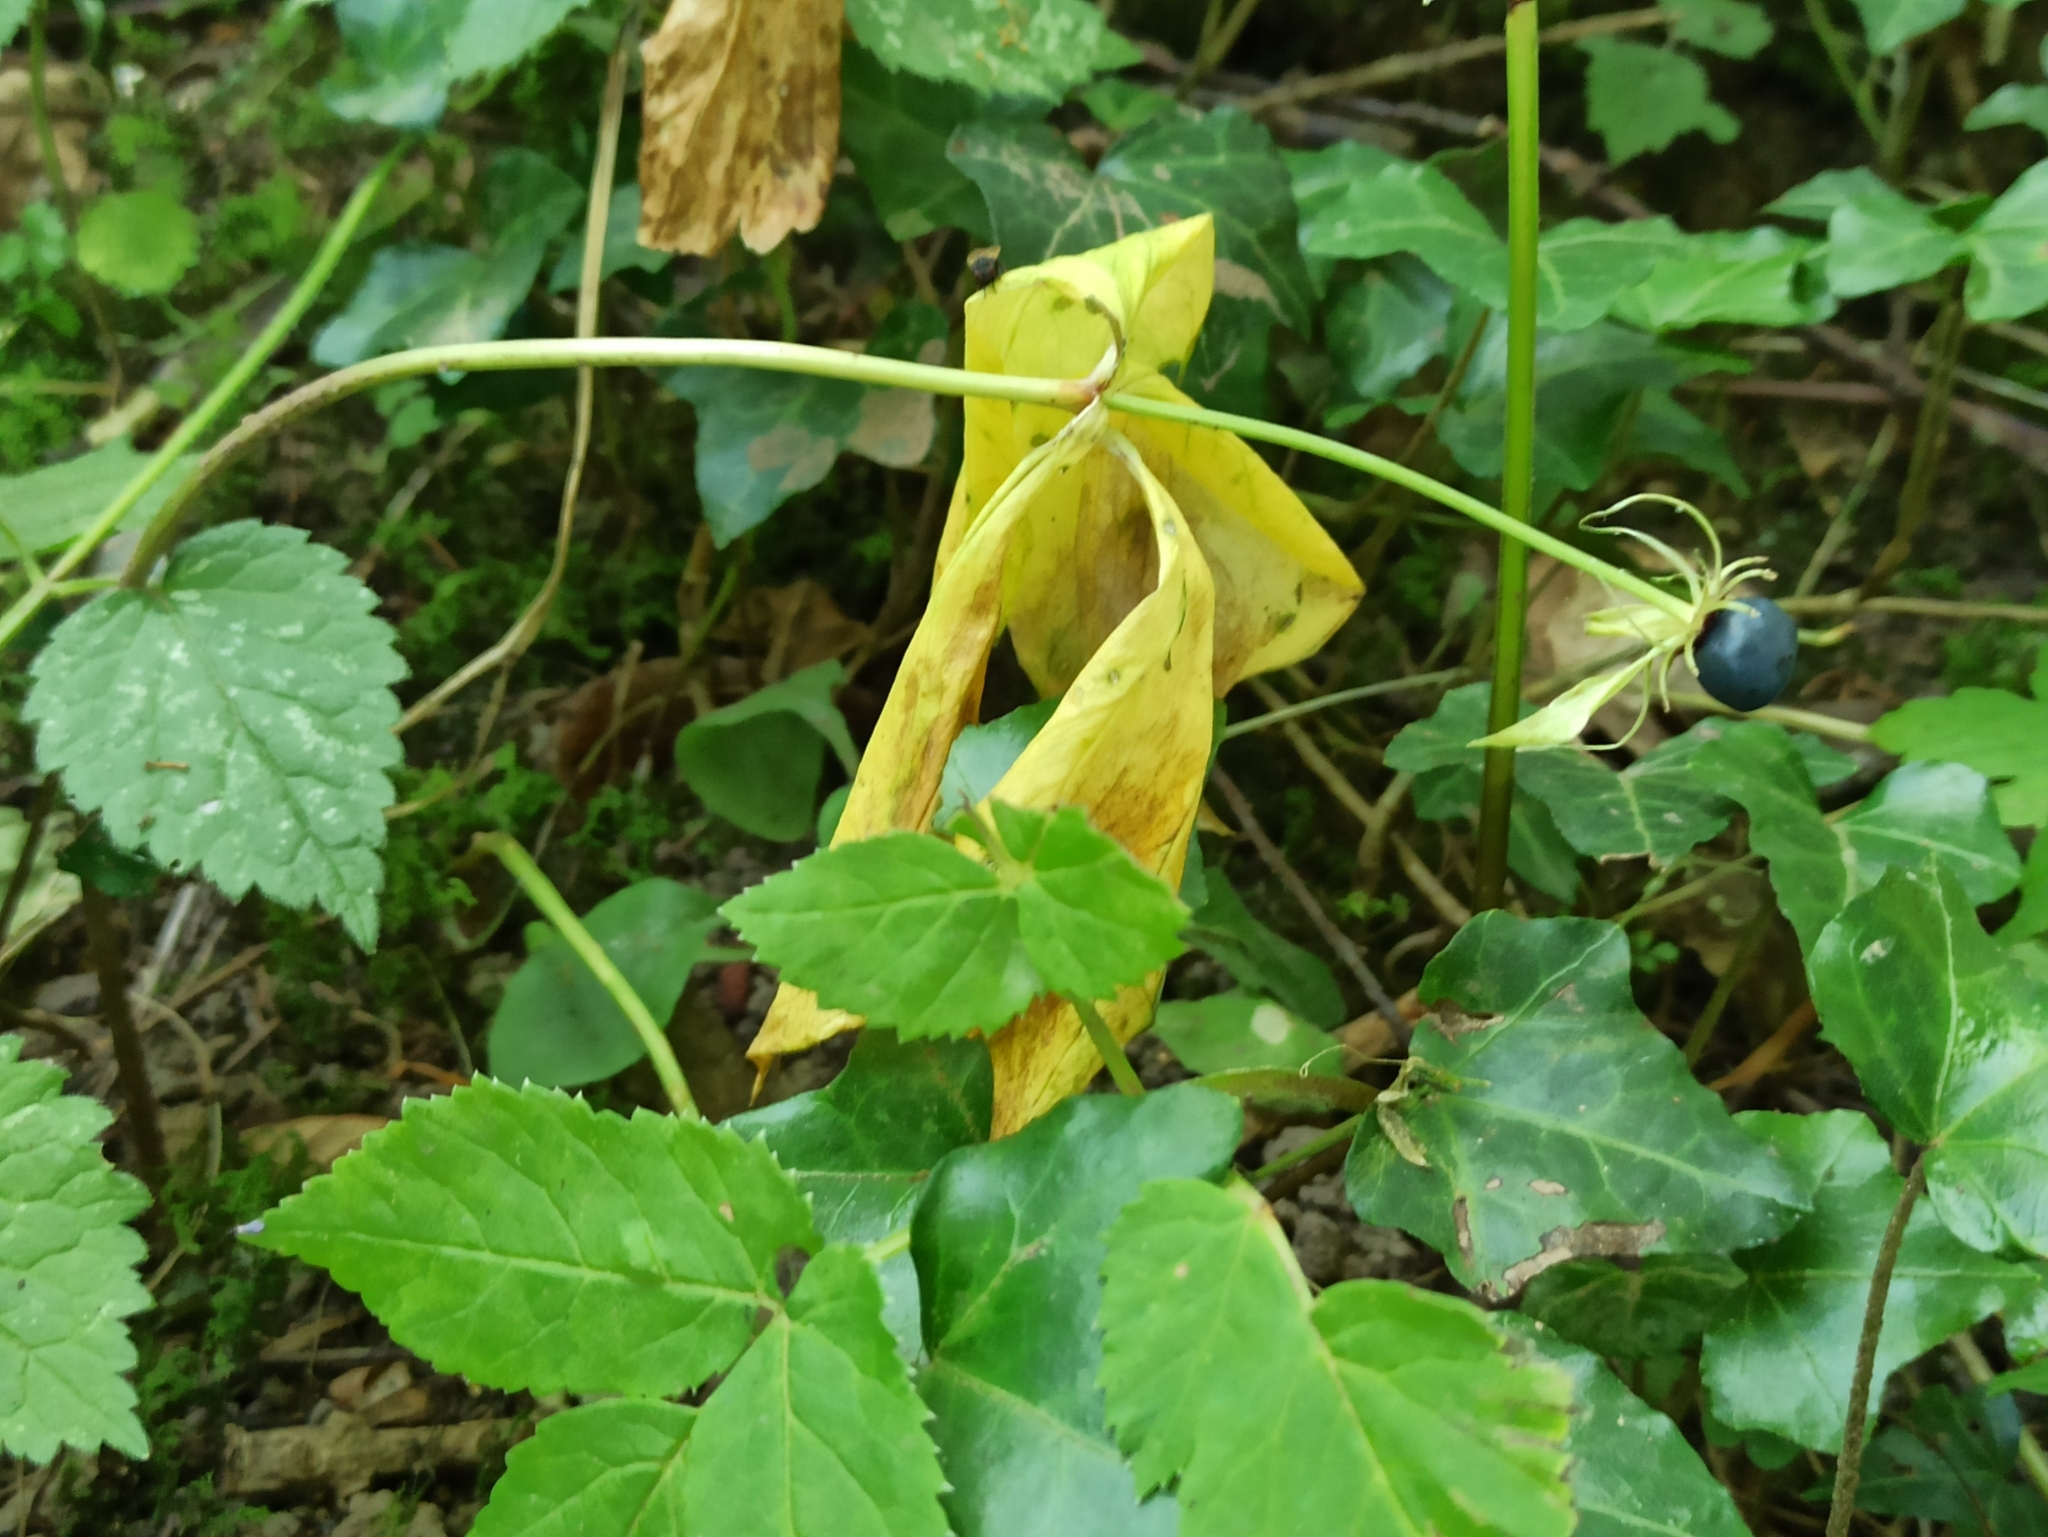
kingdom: Plantae
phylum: Tracheophyta
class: Liliopsida
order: Liliales
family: Melanthiaceae
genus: Paris
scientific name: Paris quadrifolia
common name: Herb-paris
